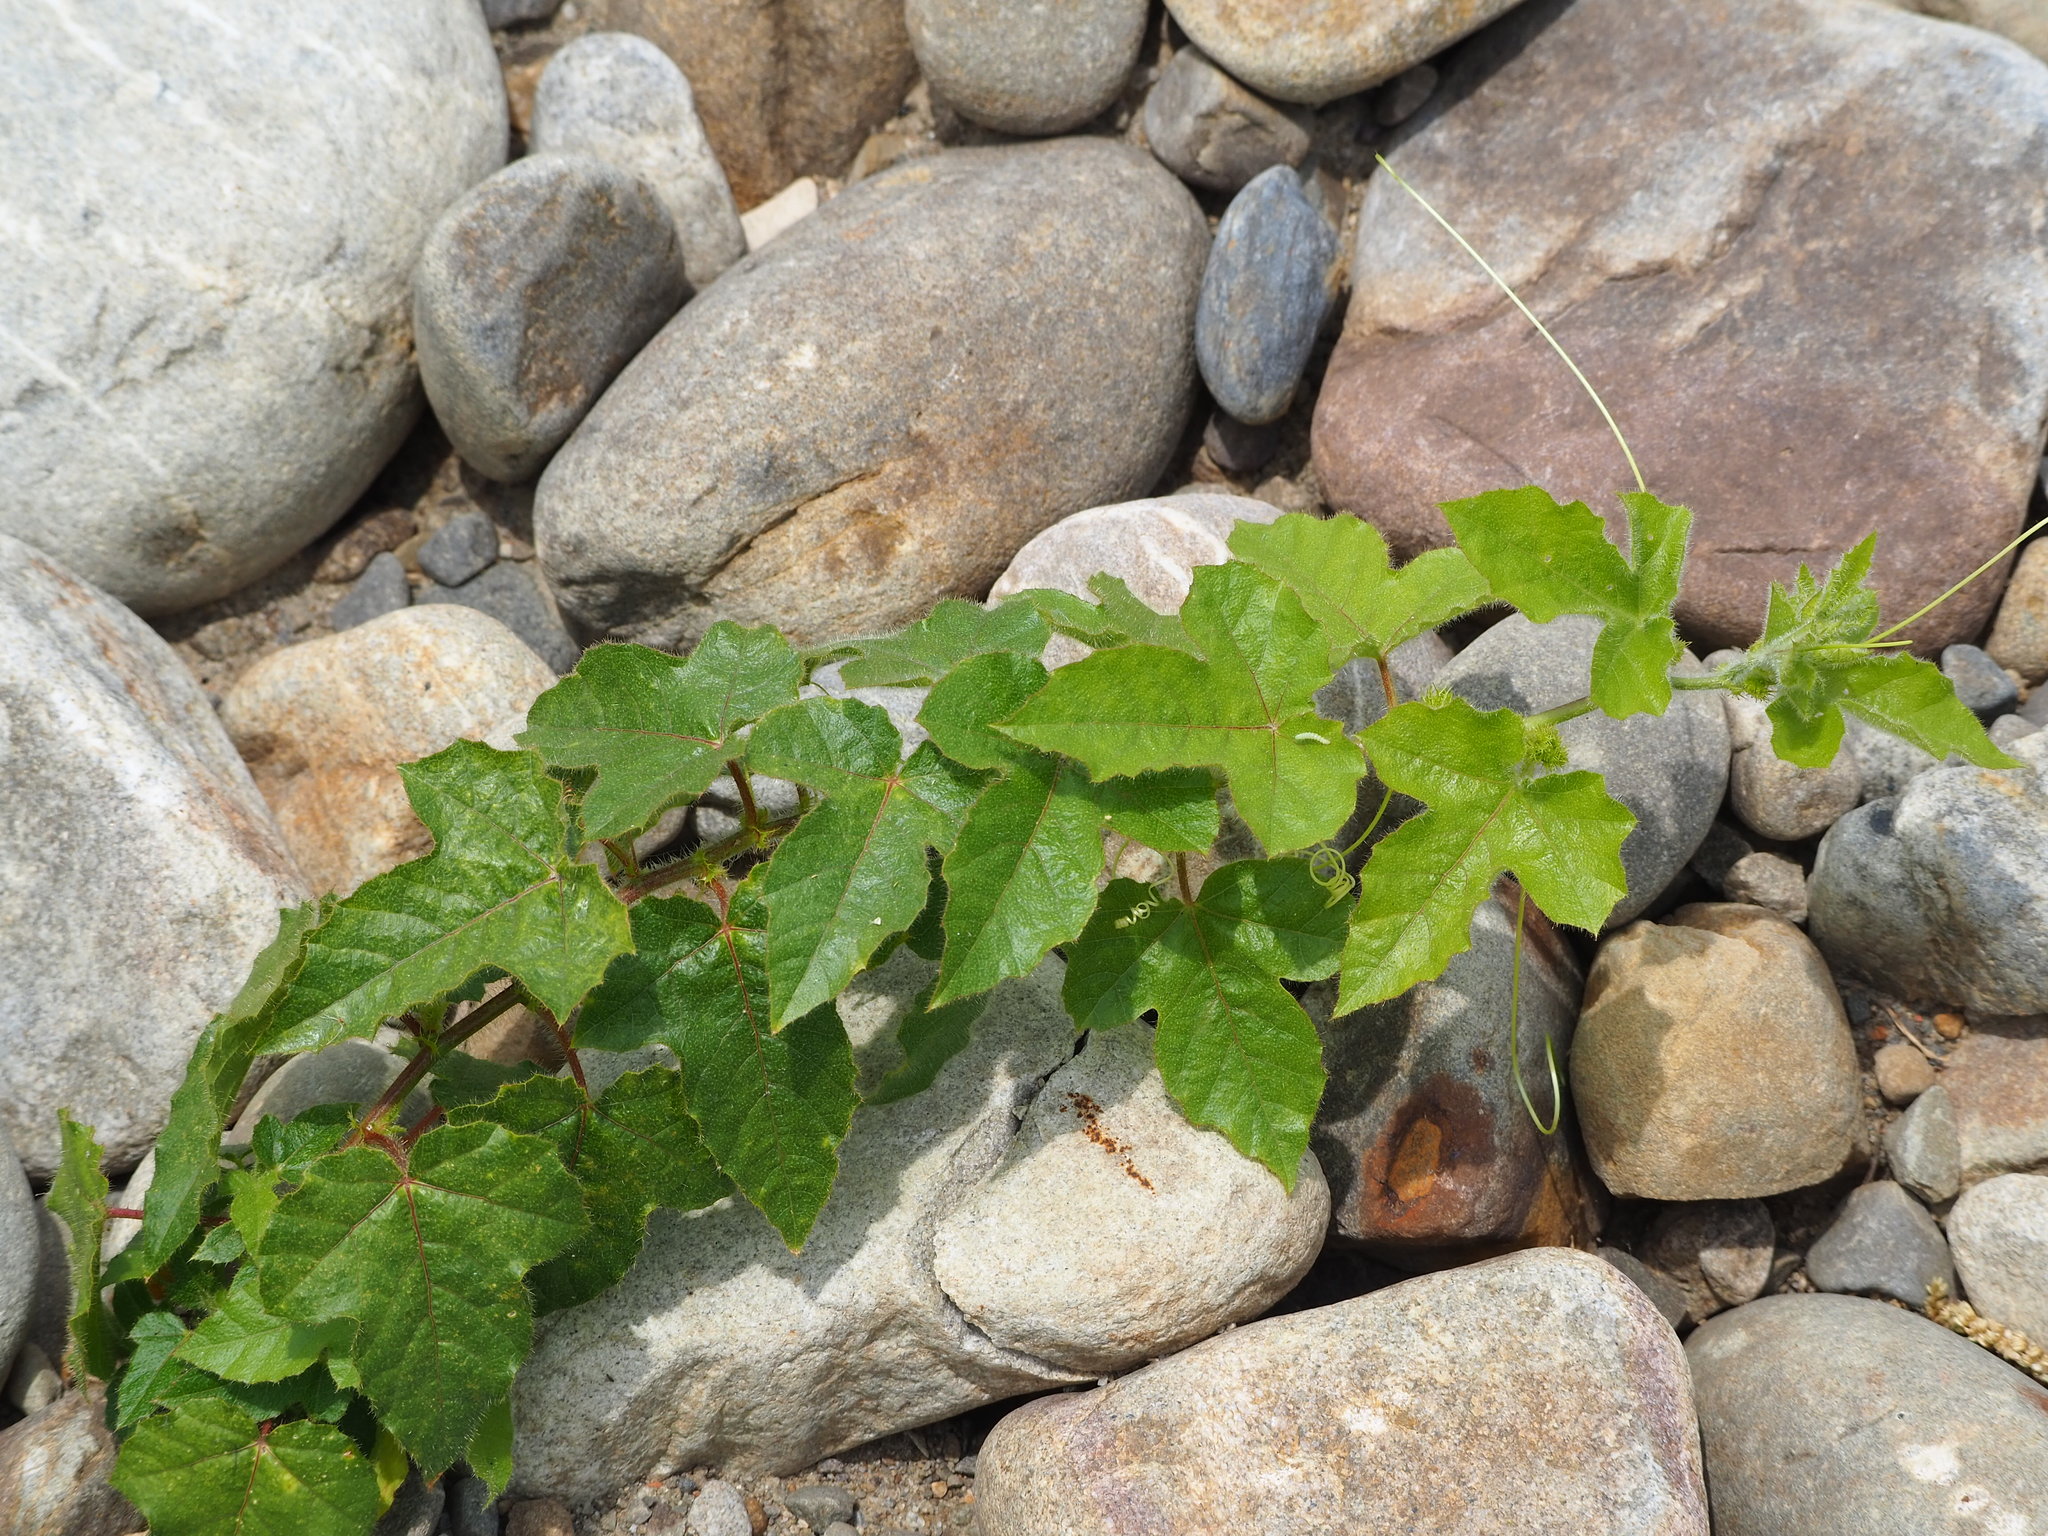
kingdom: Plantae
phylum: Tracheophyta
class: Magnoliopsida
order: Malpighiales
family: Passifloraceae
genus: Passiflora
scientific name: Passiflora vesicaria
